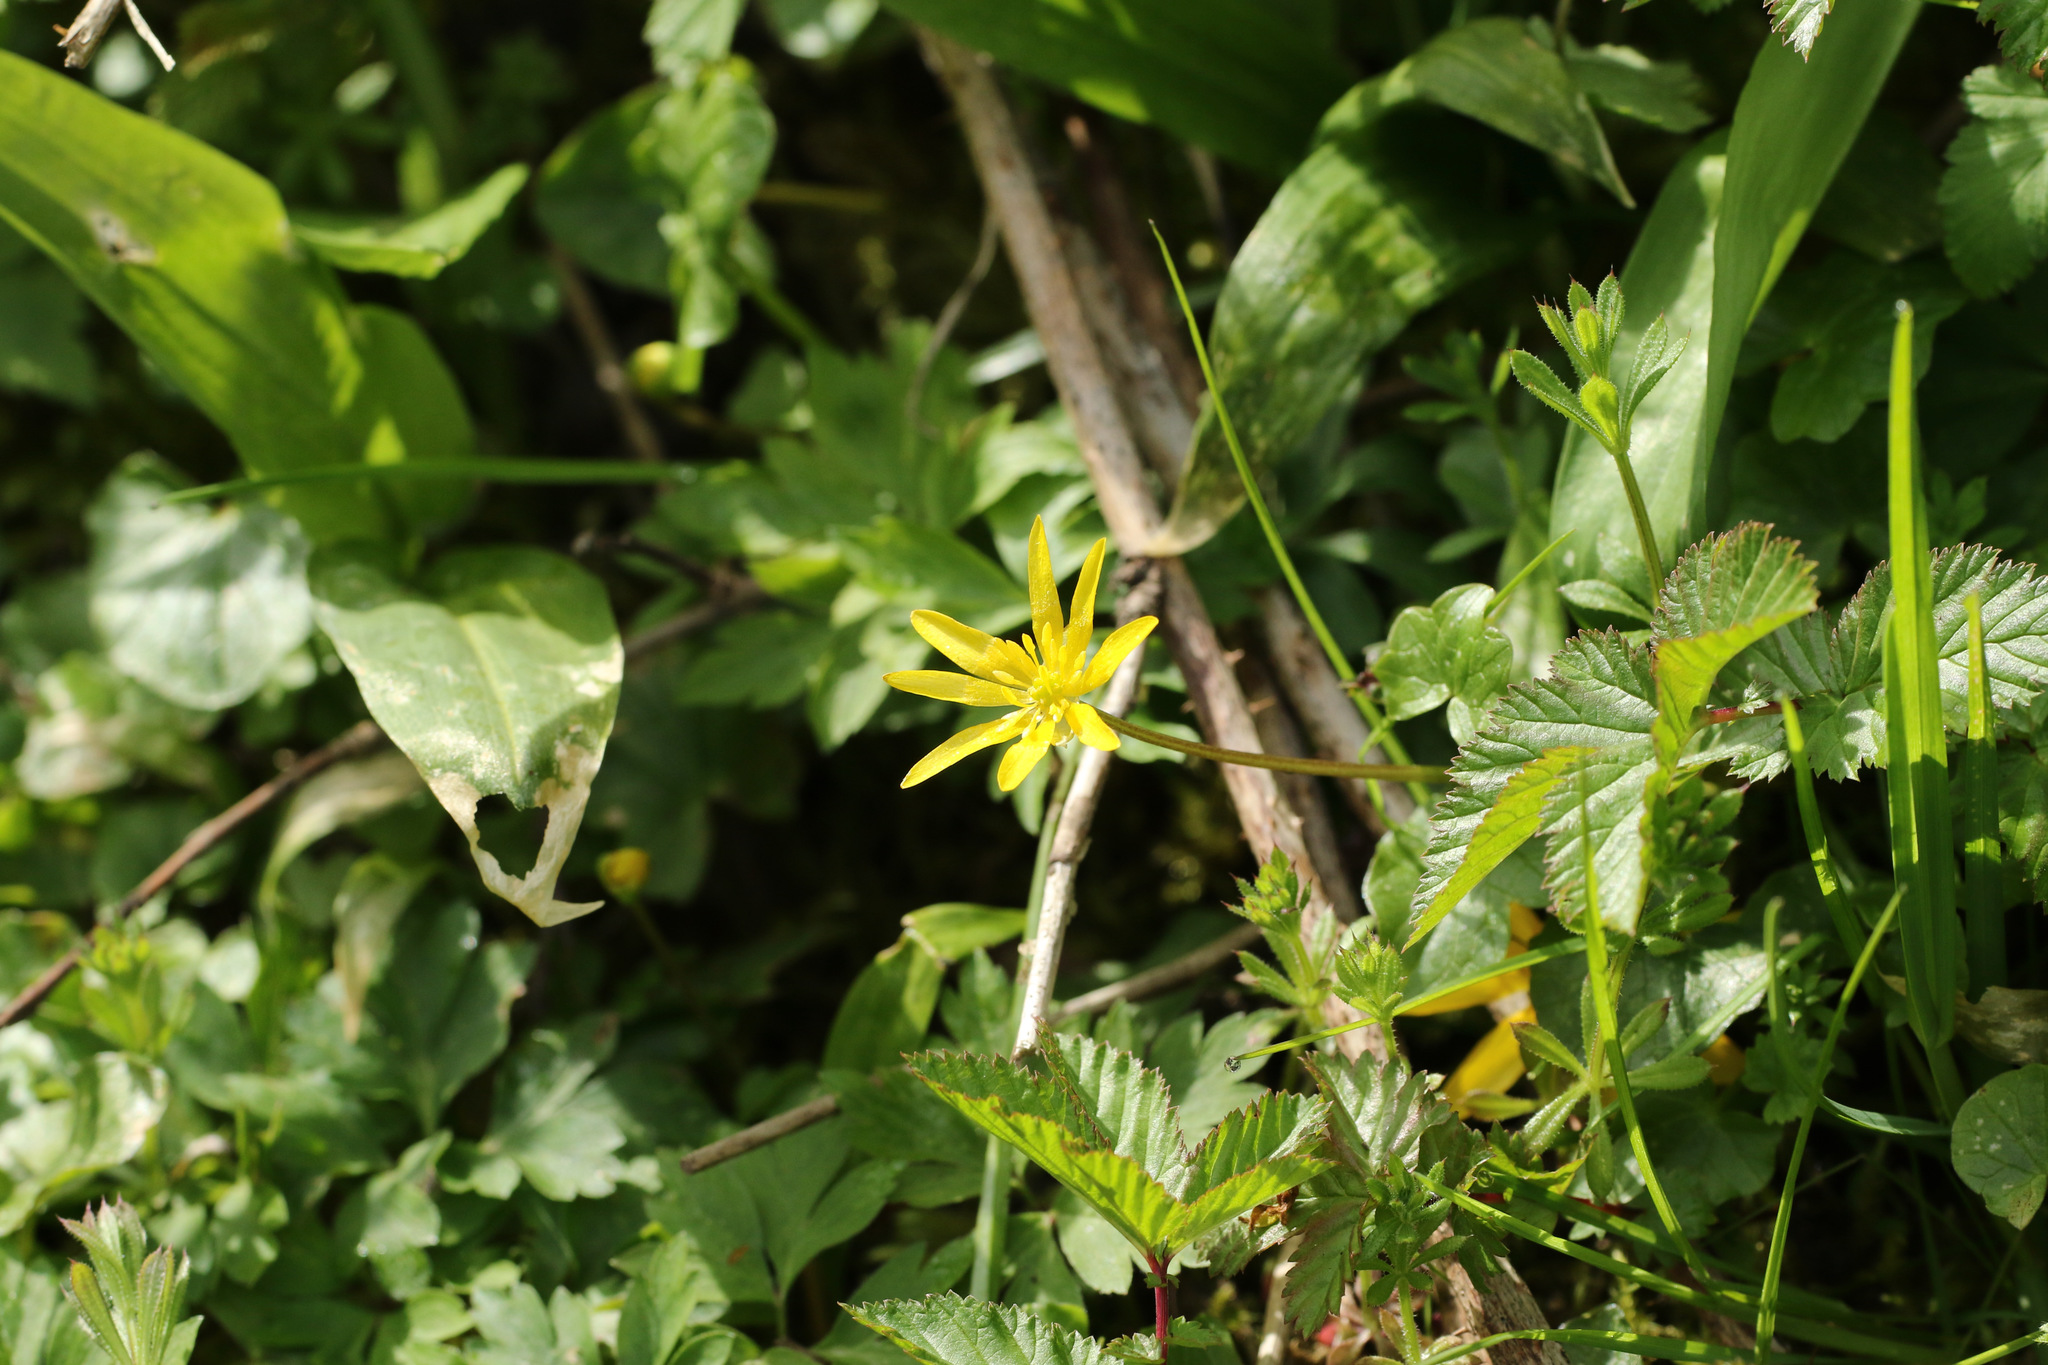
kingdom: Plantae
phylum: Tracheophyta
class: Magnoliopsida
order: Ranunculales
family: Ranunculaceae
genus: Ficaria
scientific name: Ficaria verna
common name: Lesser celandine
